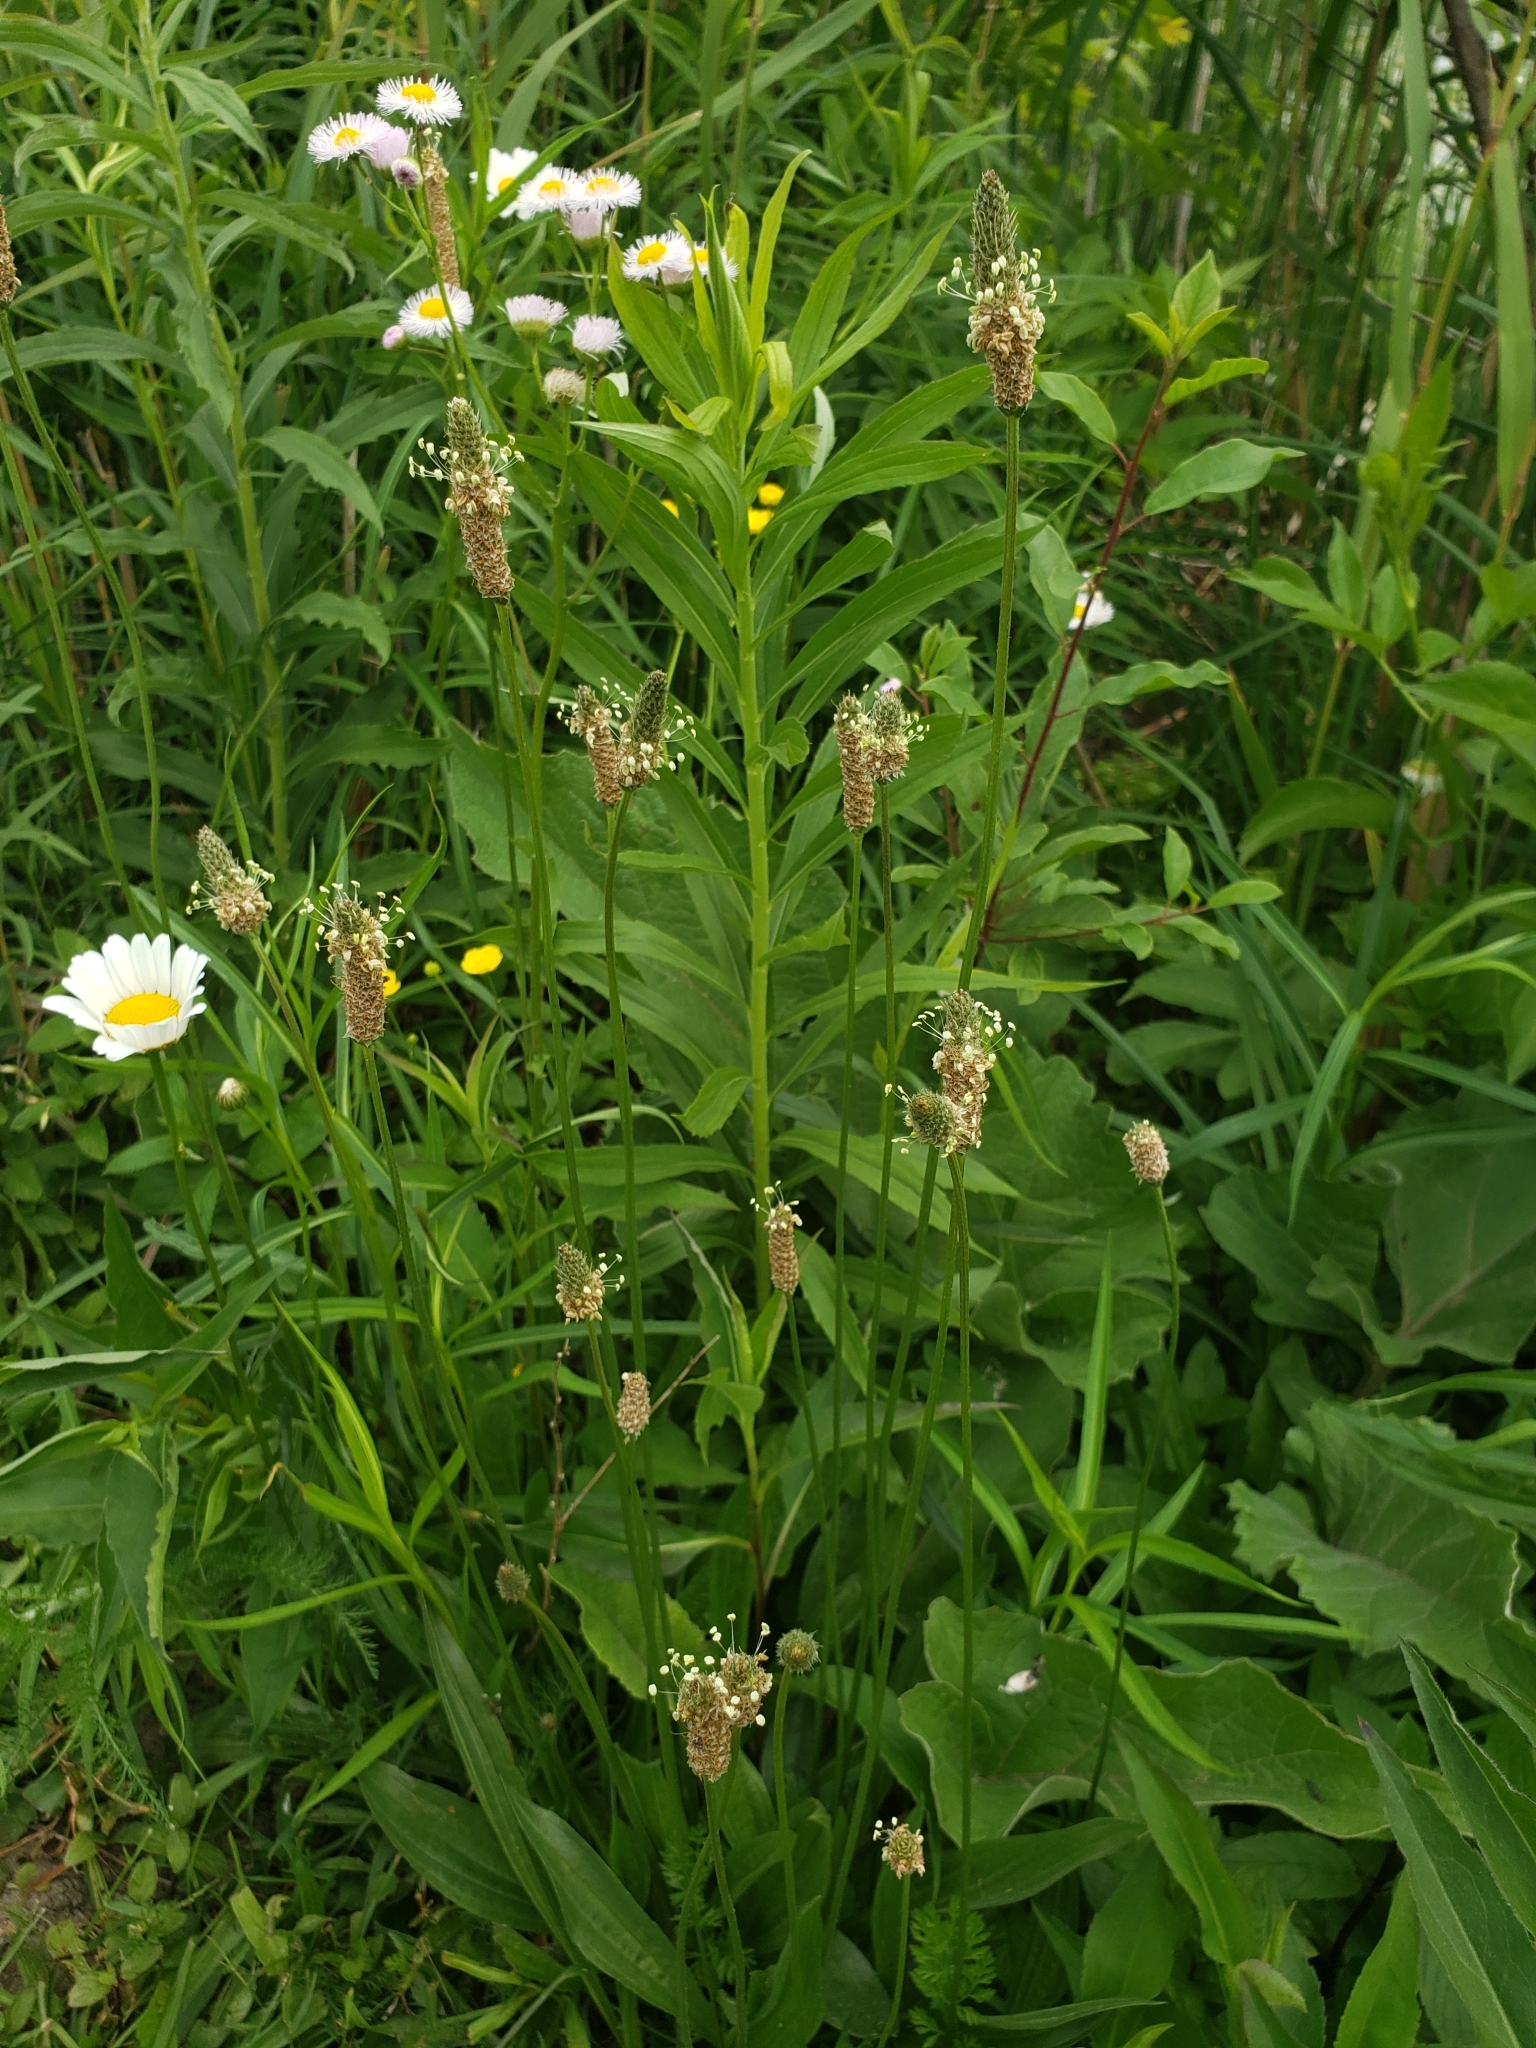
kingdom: Plantae
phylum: Tracheophyta
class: Magnoliopsida
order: Lamiales
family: Plantaginaceae
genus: Plantago
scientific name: Plantago lanceolata
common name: Ribwort plantain
